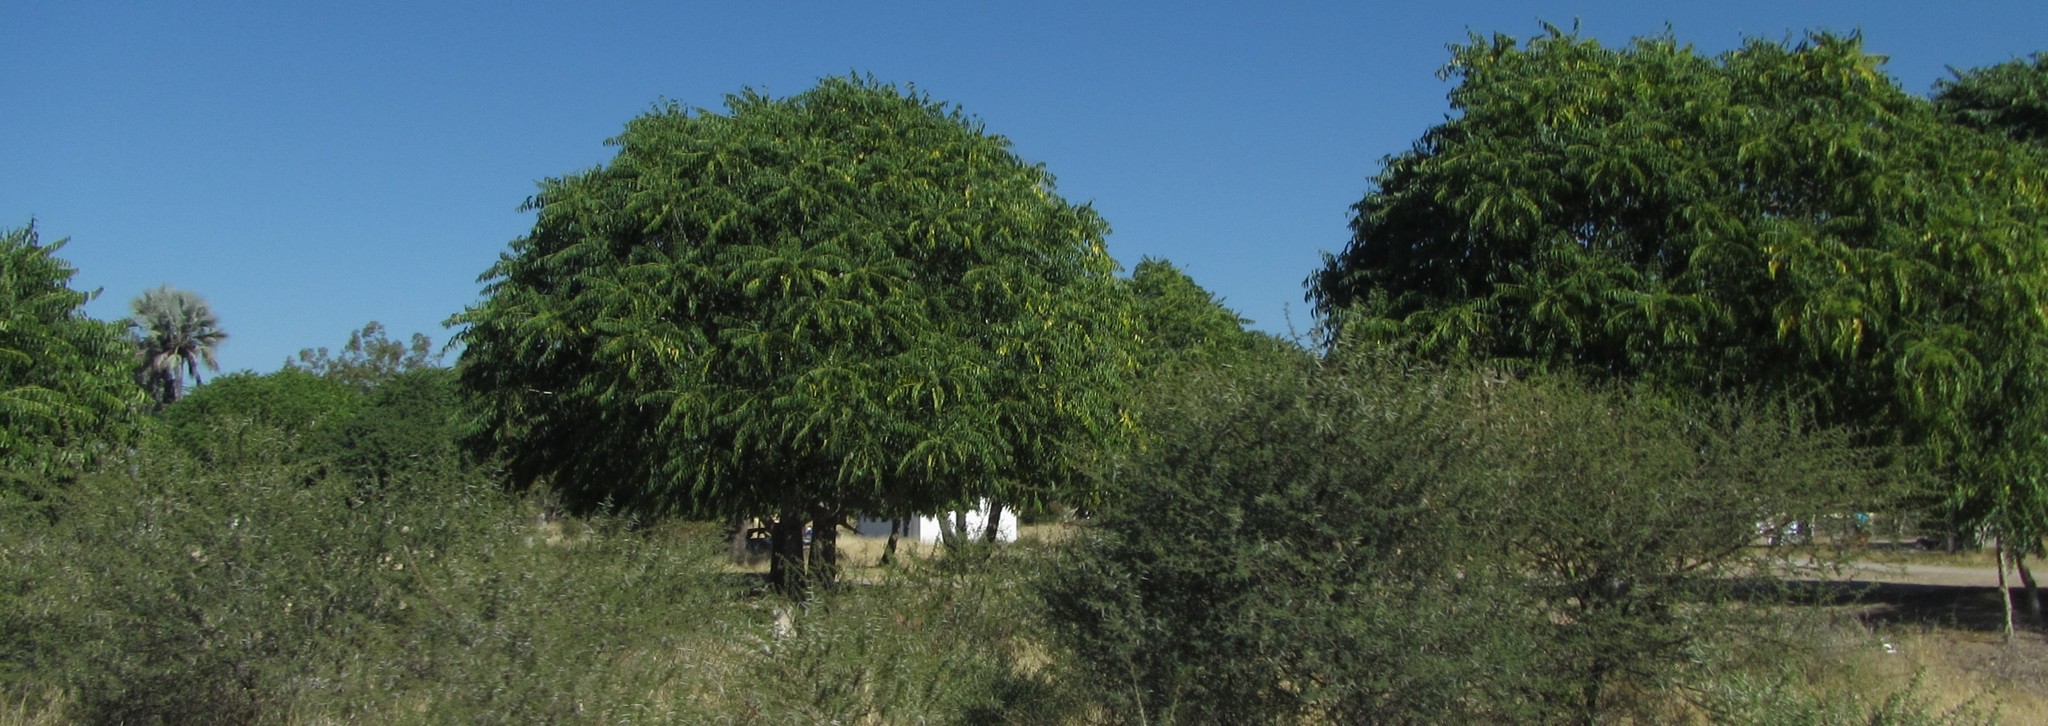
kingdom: Plantae
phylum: Tracheophyta
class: Magnoliopsida
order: Sapindales
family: Simaroubaceae
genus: Ailanthus
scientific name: Ailanthus excelsa
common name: Indian tree-of-heaven
